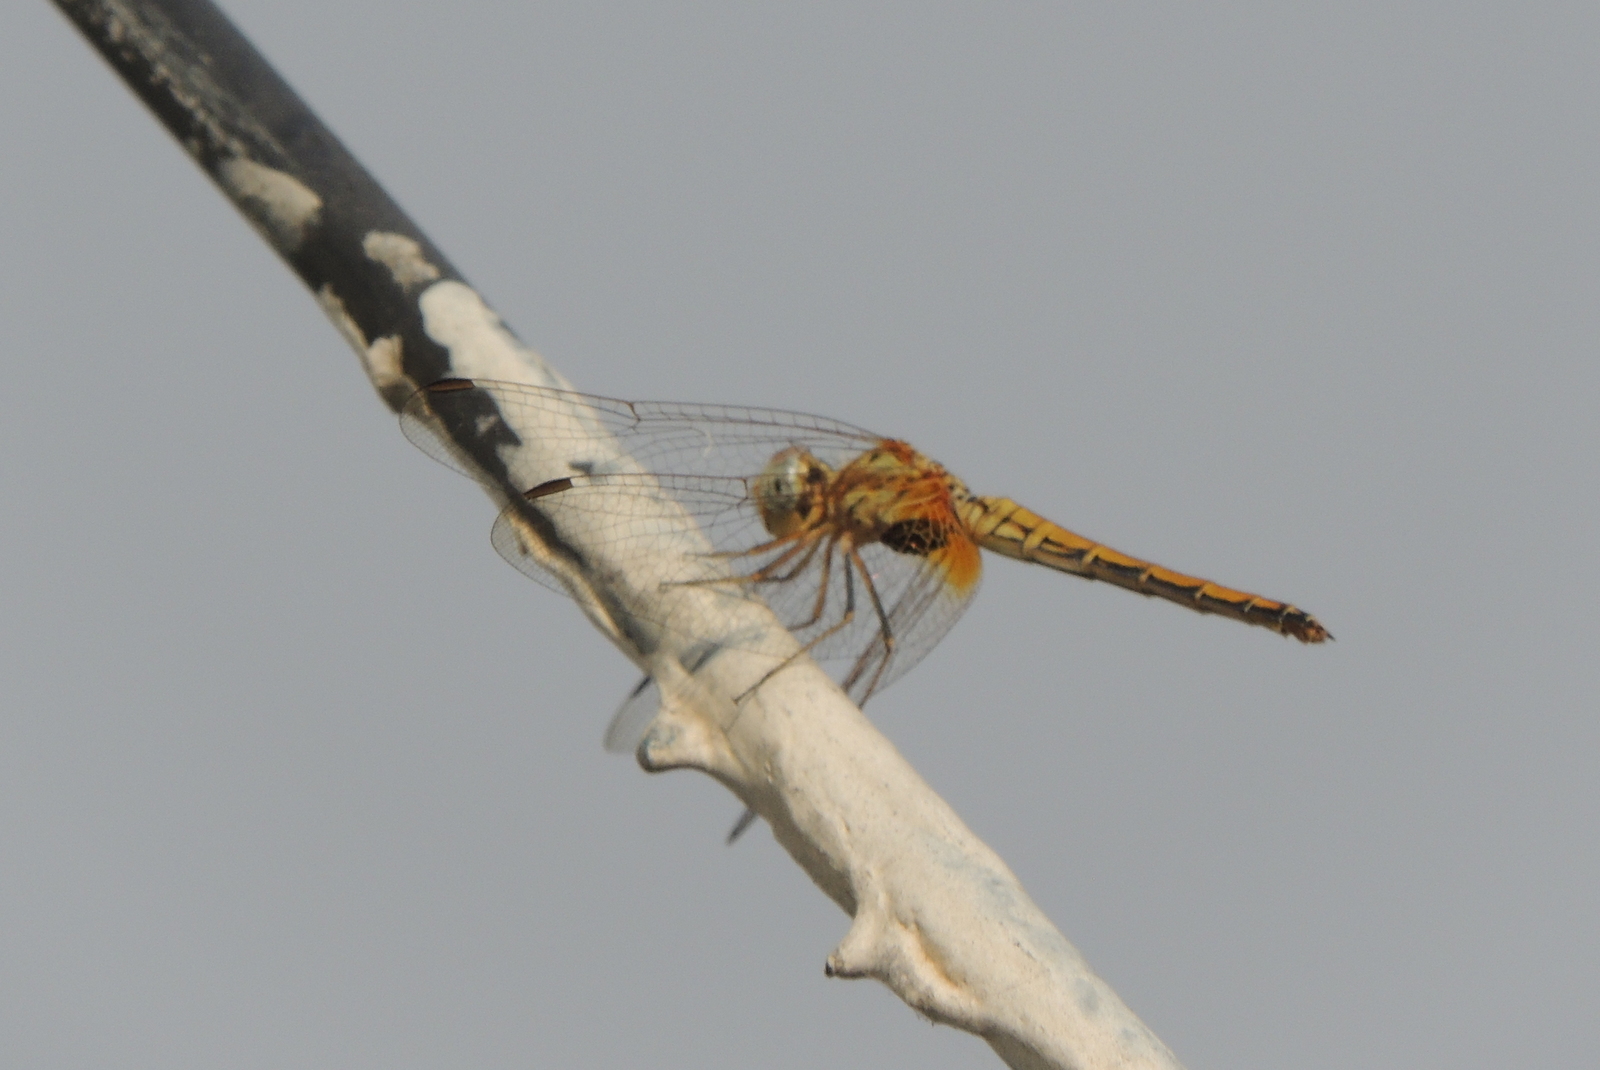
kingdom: Animalia
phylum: Arthropoda
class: Insecta
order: Odonata
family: Libellulidae
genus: Trithemis
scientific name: Trithemis aurora
